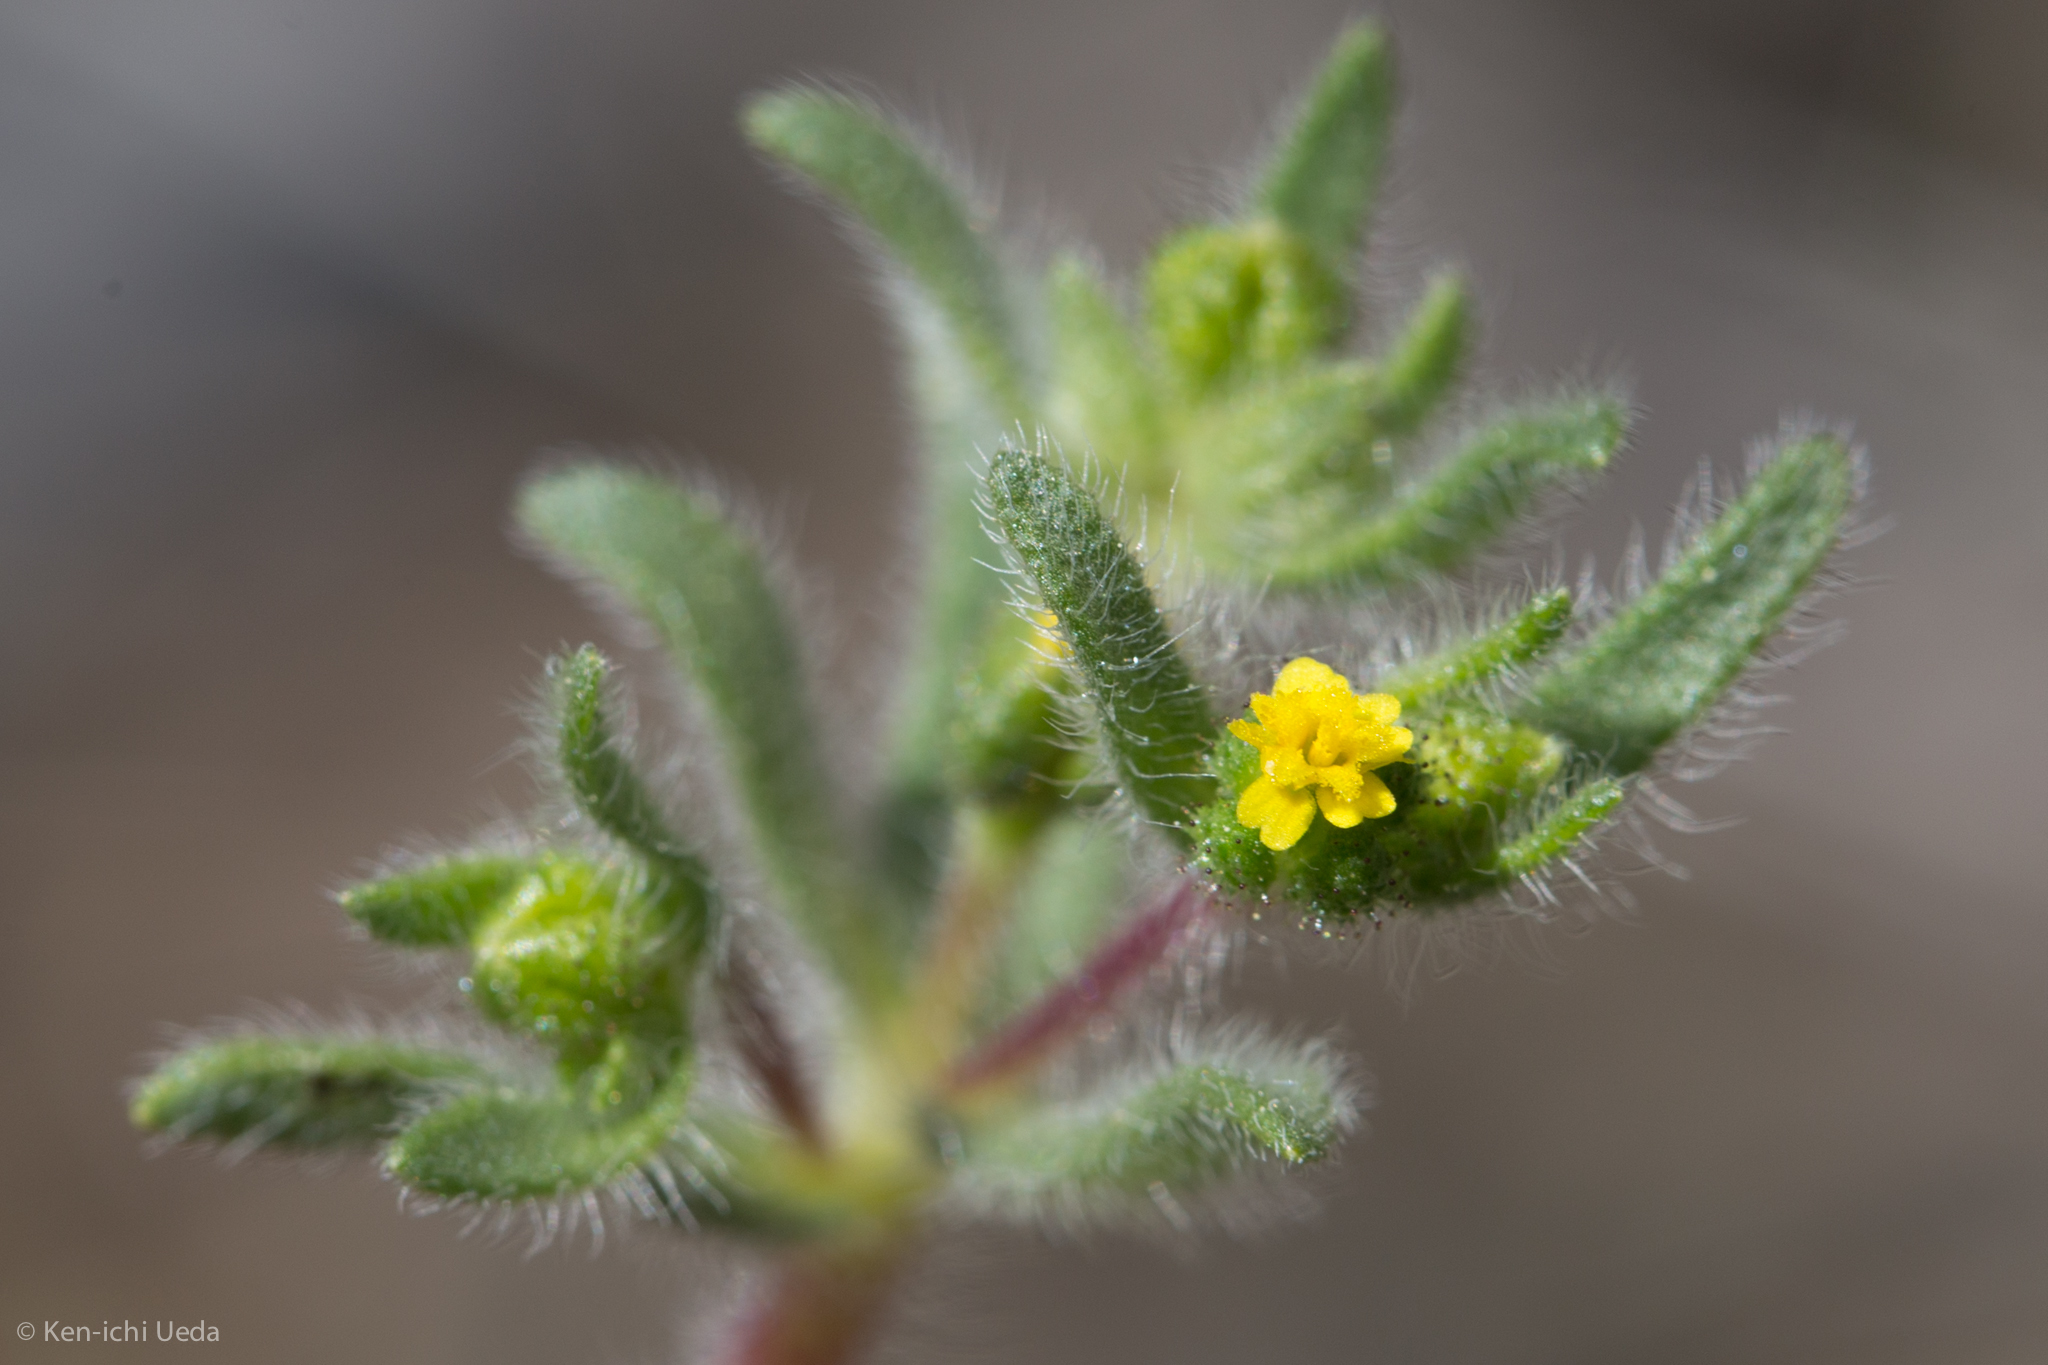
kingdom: Plantae
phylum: Tracheophyta
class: Magnoliopsida
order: Asterales
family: Asteraceae
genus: Hemizonella
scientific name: Hemizonella minima
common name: Opposite-leaved tarweed
